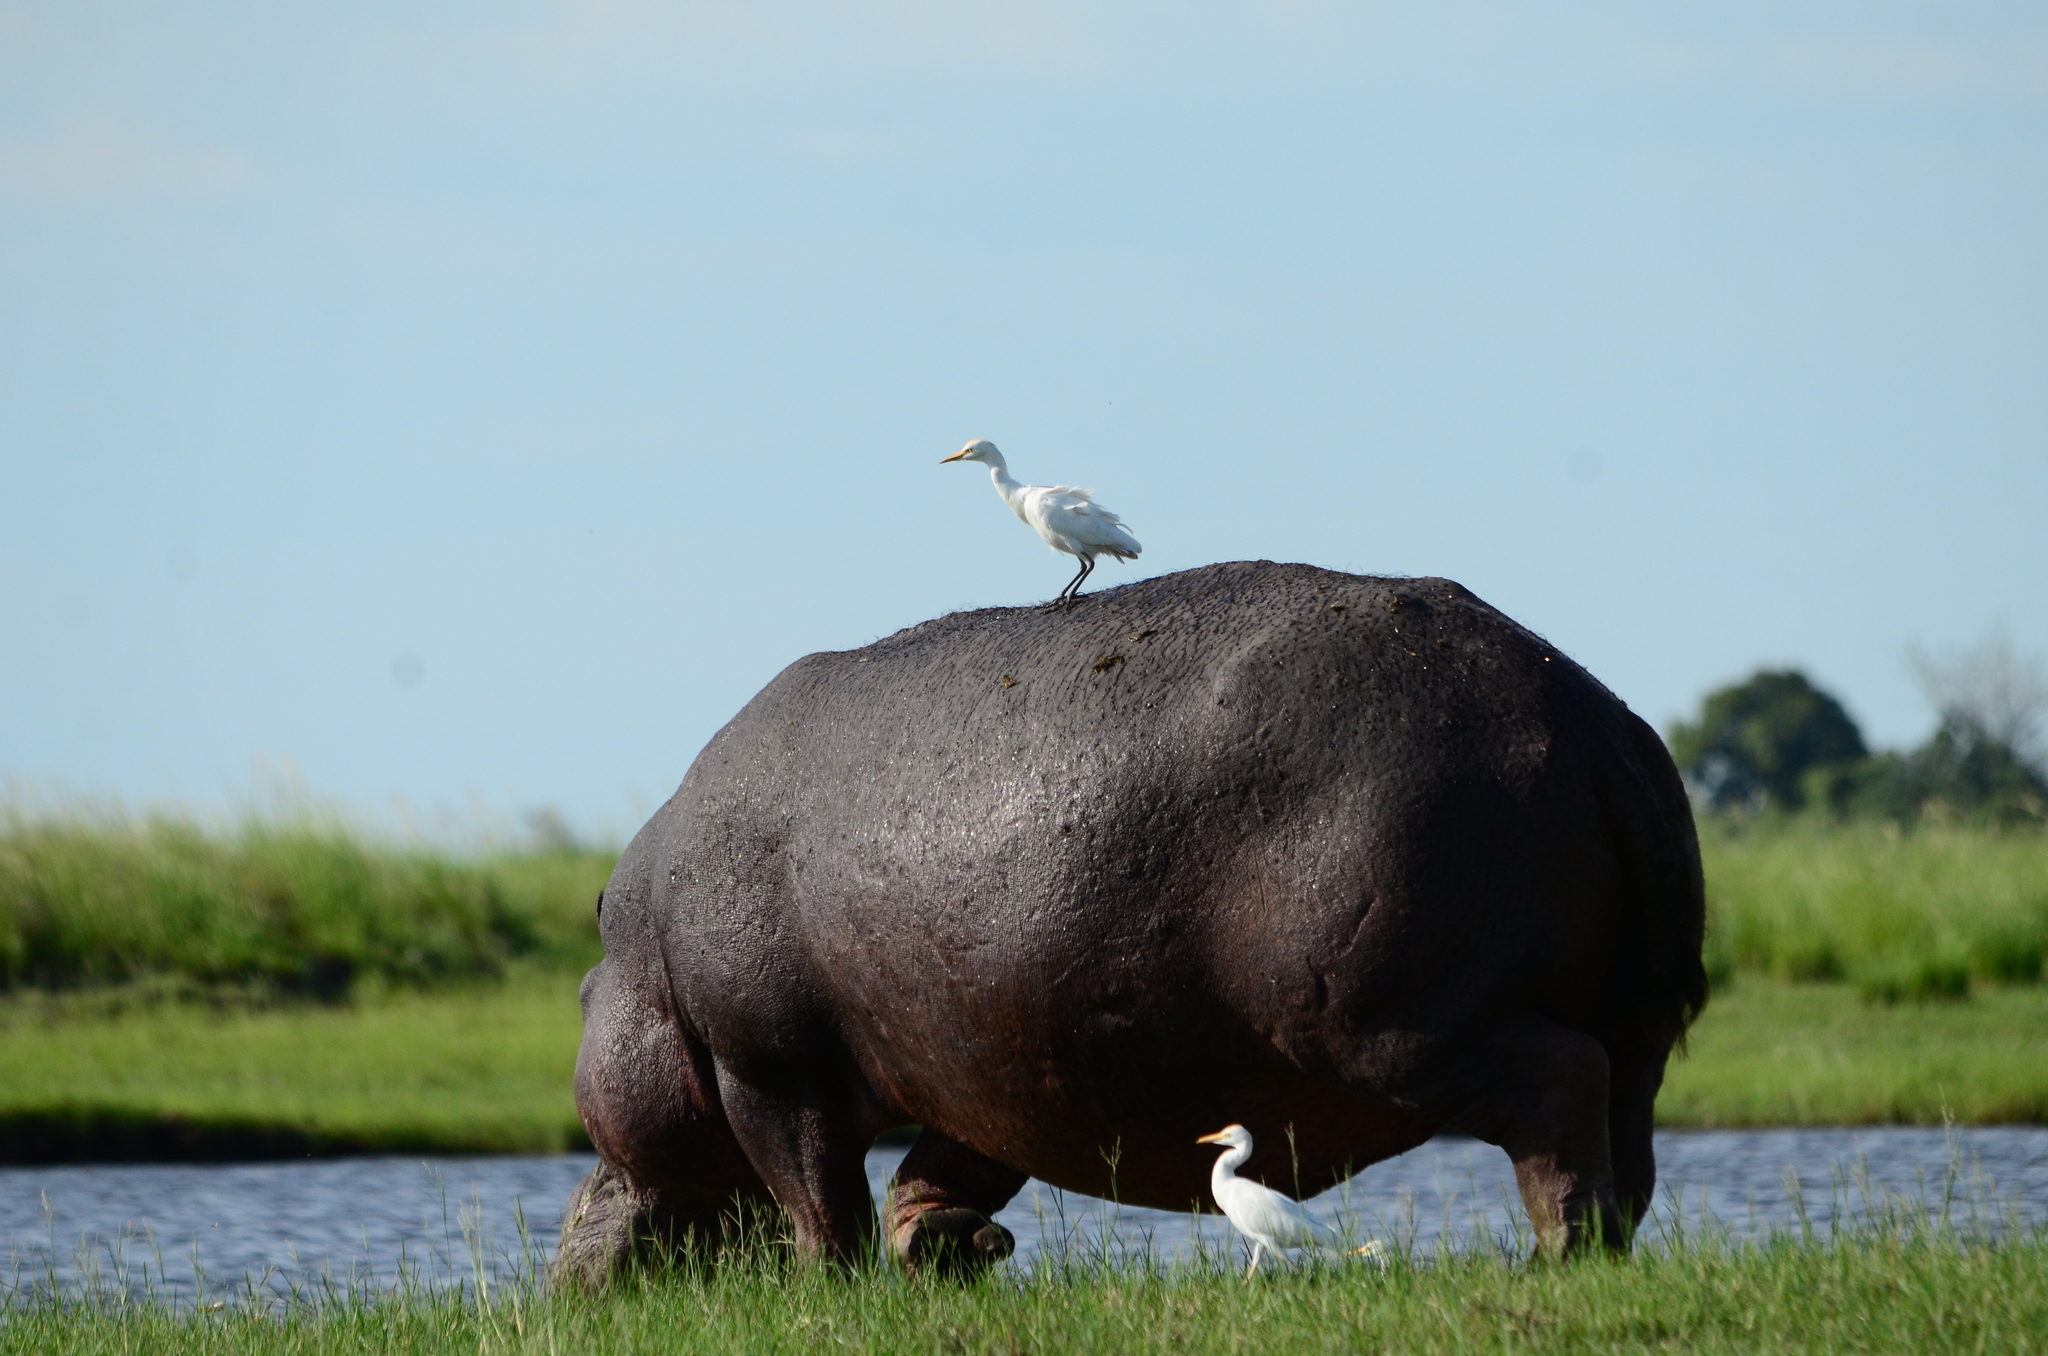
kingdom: Animalia
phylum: Chordata
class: Aves
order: Pelecaniformes
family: Ardeidae
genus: Bubulcus
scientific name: Bubulcus ibis
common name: Cattle egret
